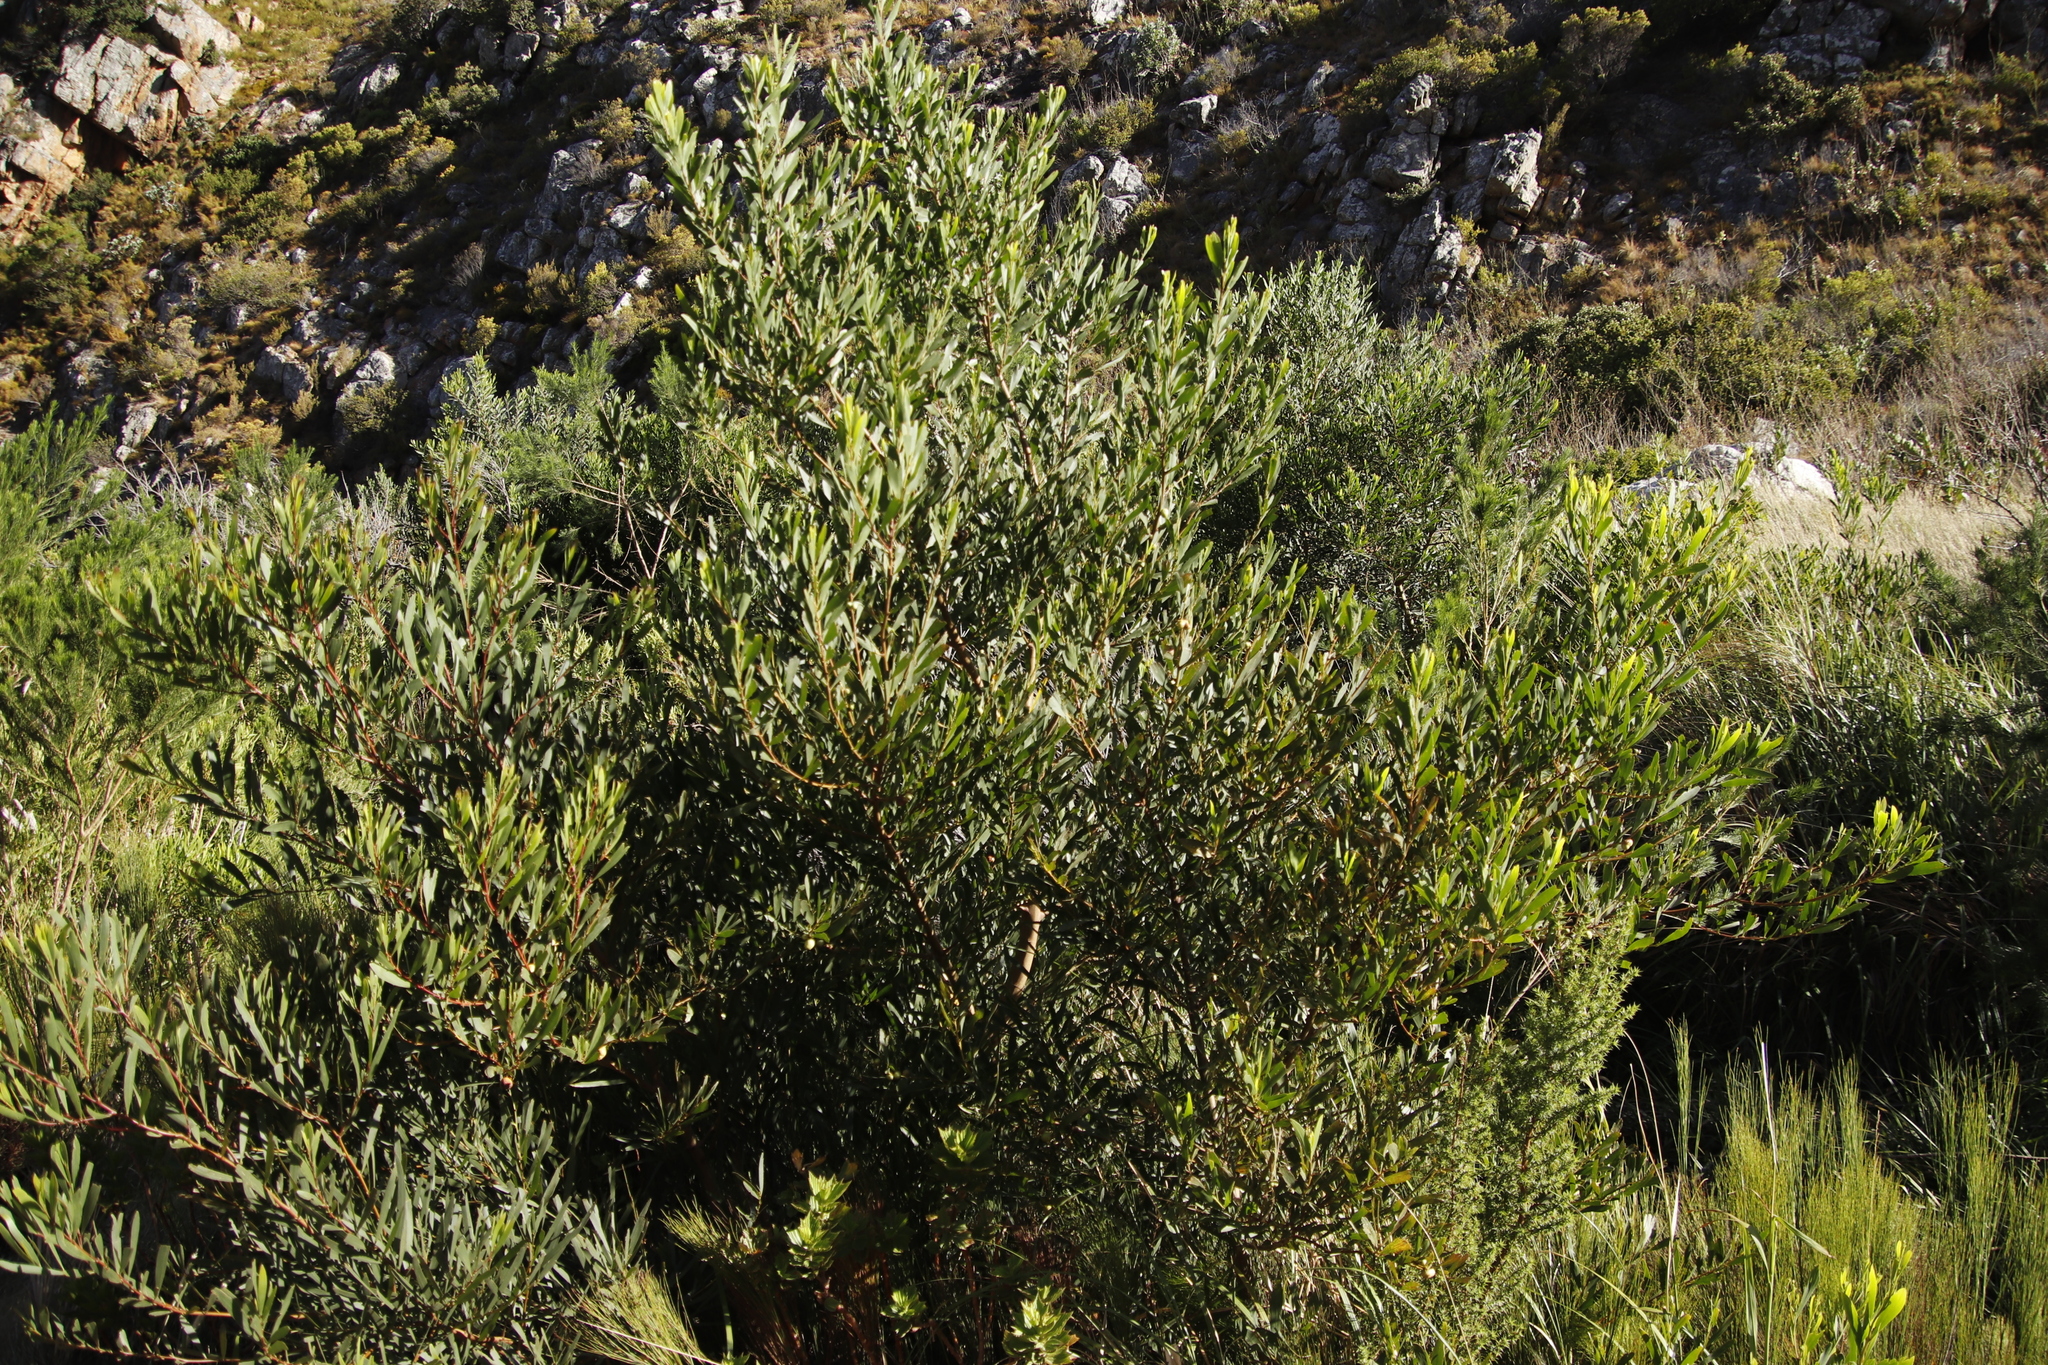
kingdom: Plantae
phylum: Tracheophyta
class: Magnoliopsida
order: Fabales
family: Fabaceae
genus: Acacia
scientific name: Acacia longifolia
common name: Sydney golden wattle
